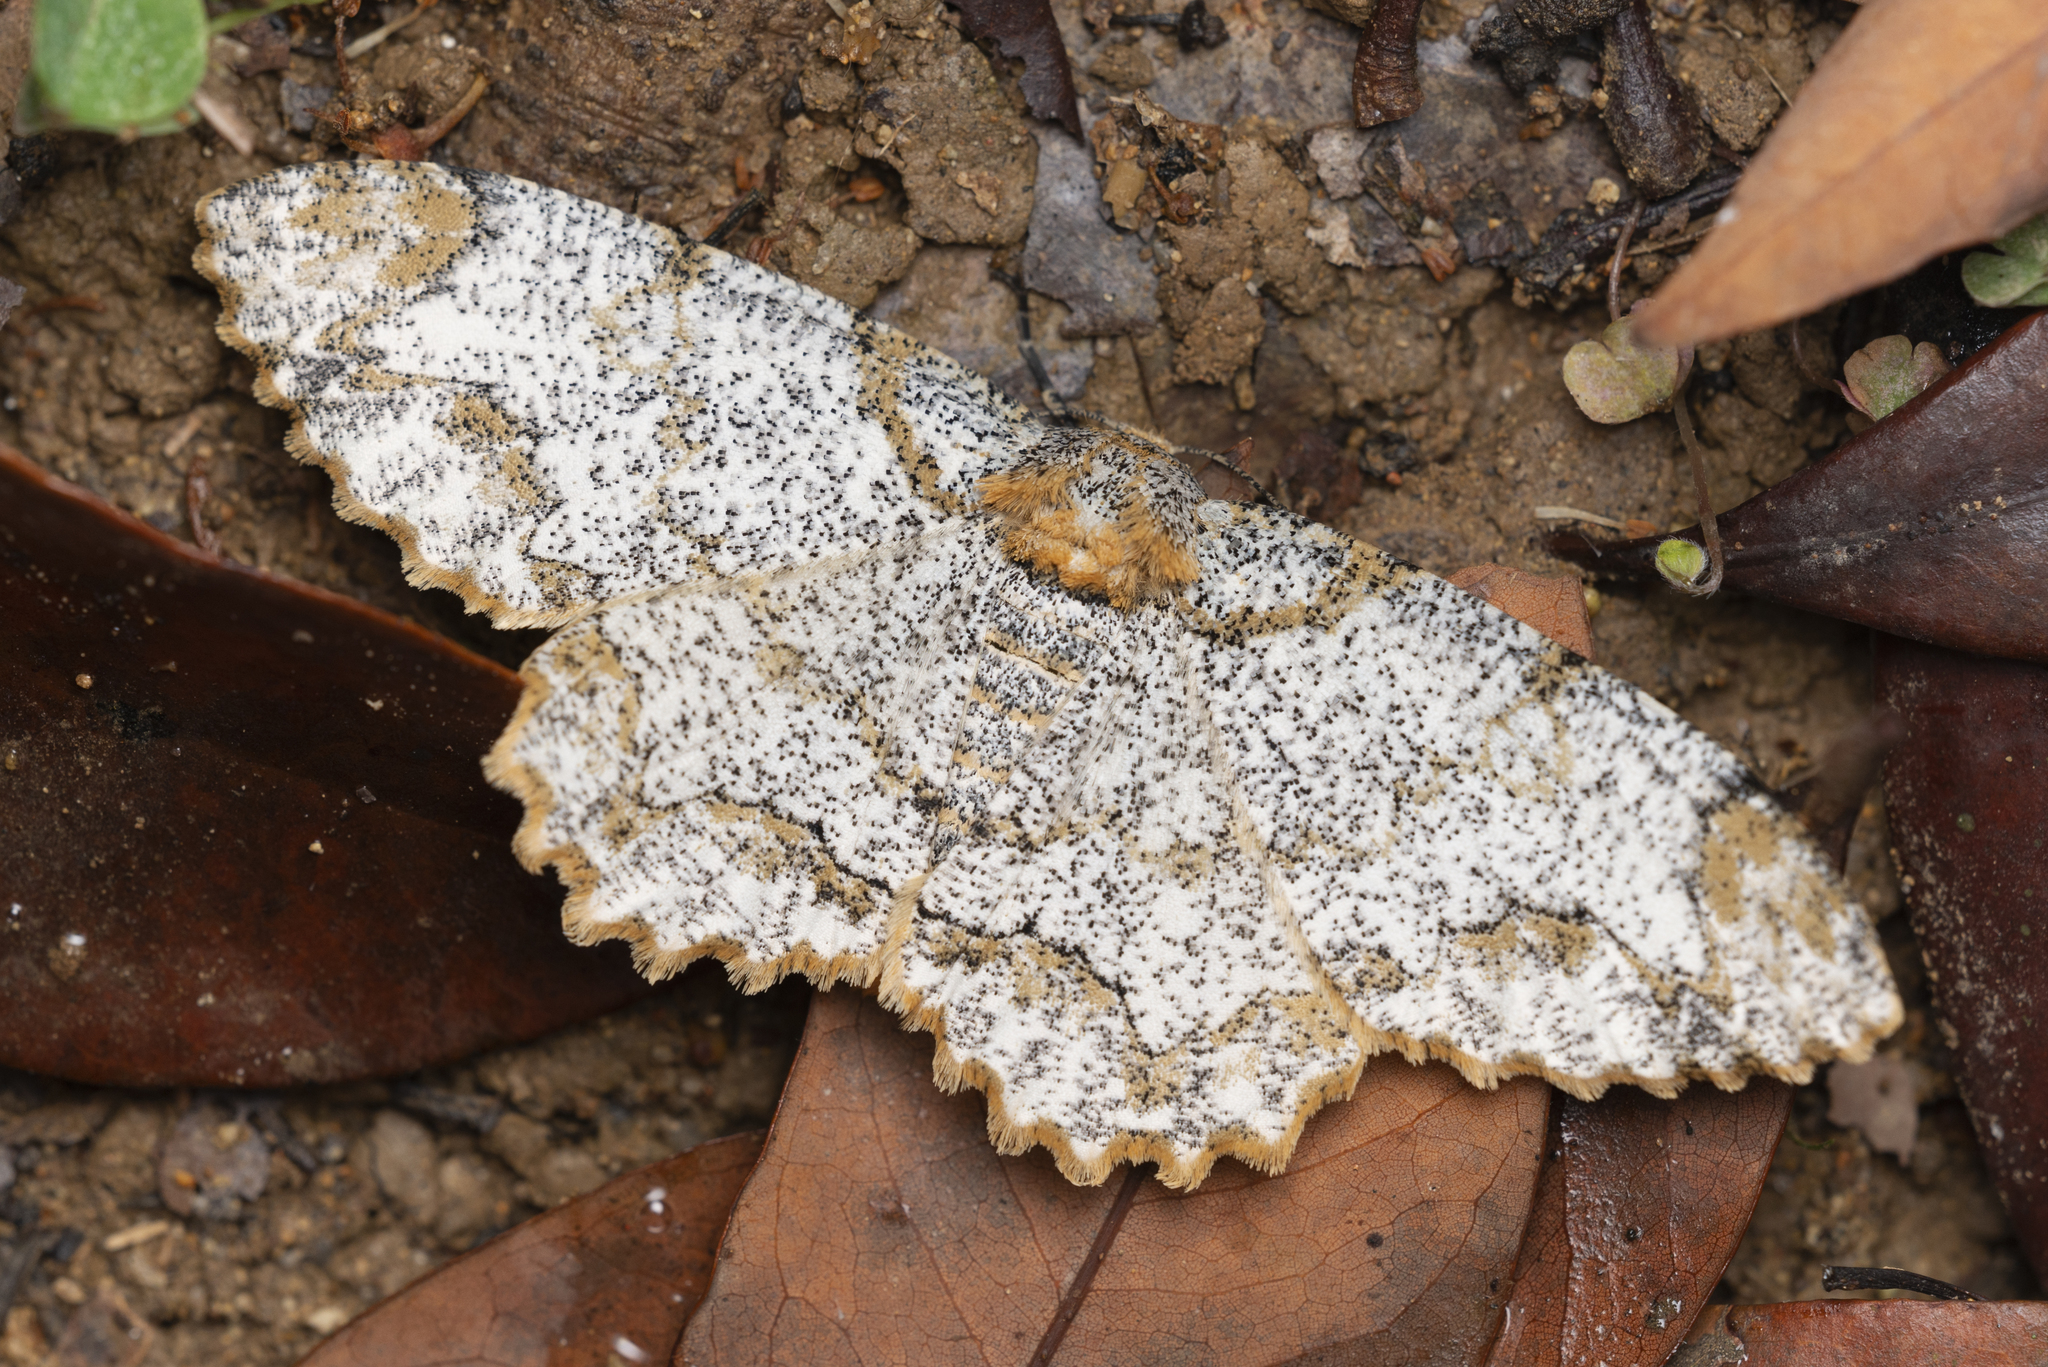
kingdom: Animalia
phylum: Arthropoda
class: Insecta
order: Lepidoptera
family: Geometridae
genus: Biston
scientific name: Biston suppressaria
